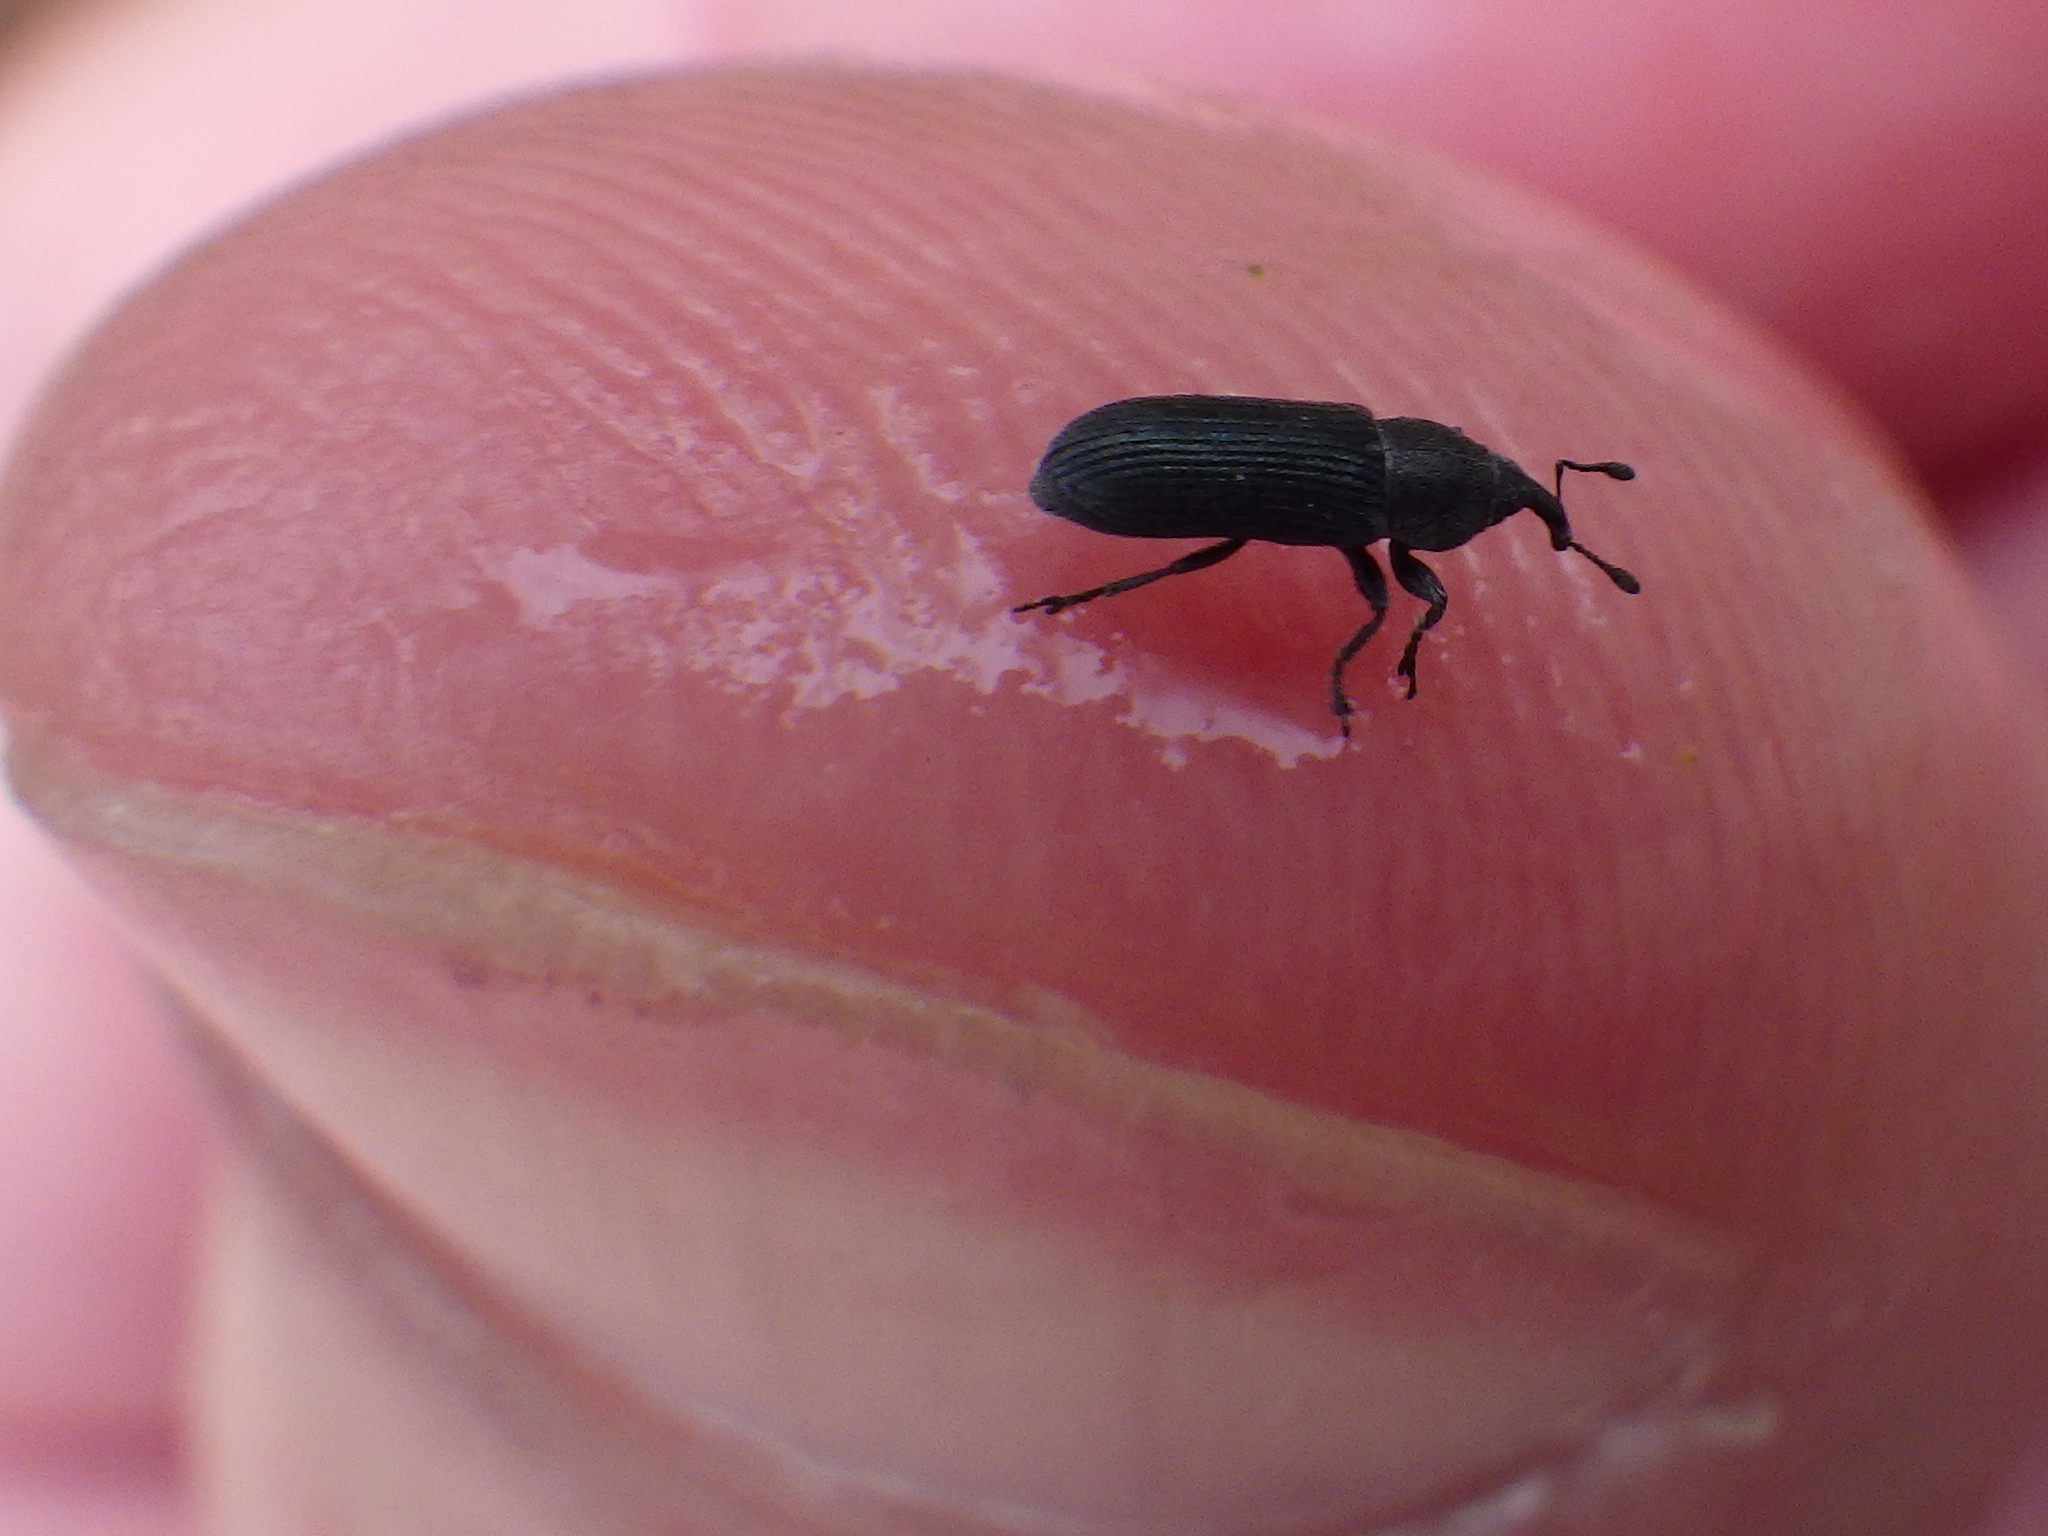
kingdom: Animalia
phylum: Arthropoda
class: Insecta
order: Coleoptera
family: Curculionidae
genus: Mecinus
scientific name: Mecinus janthinus
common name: Yellow toadflax stem weevil
